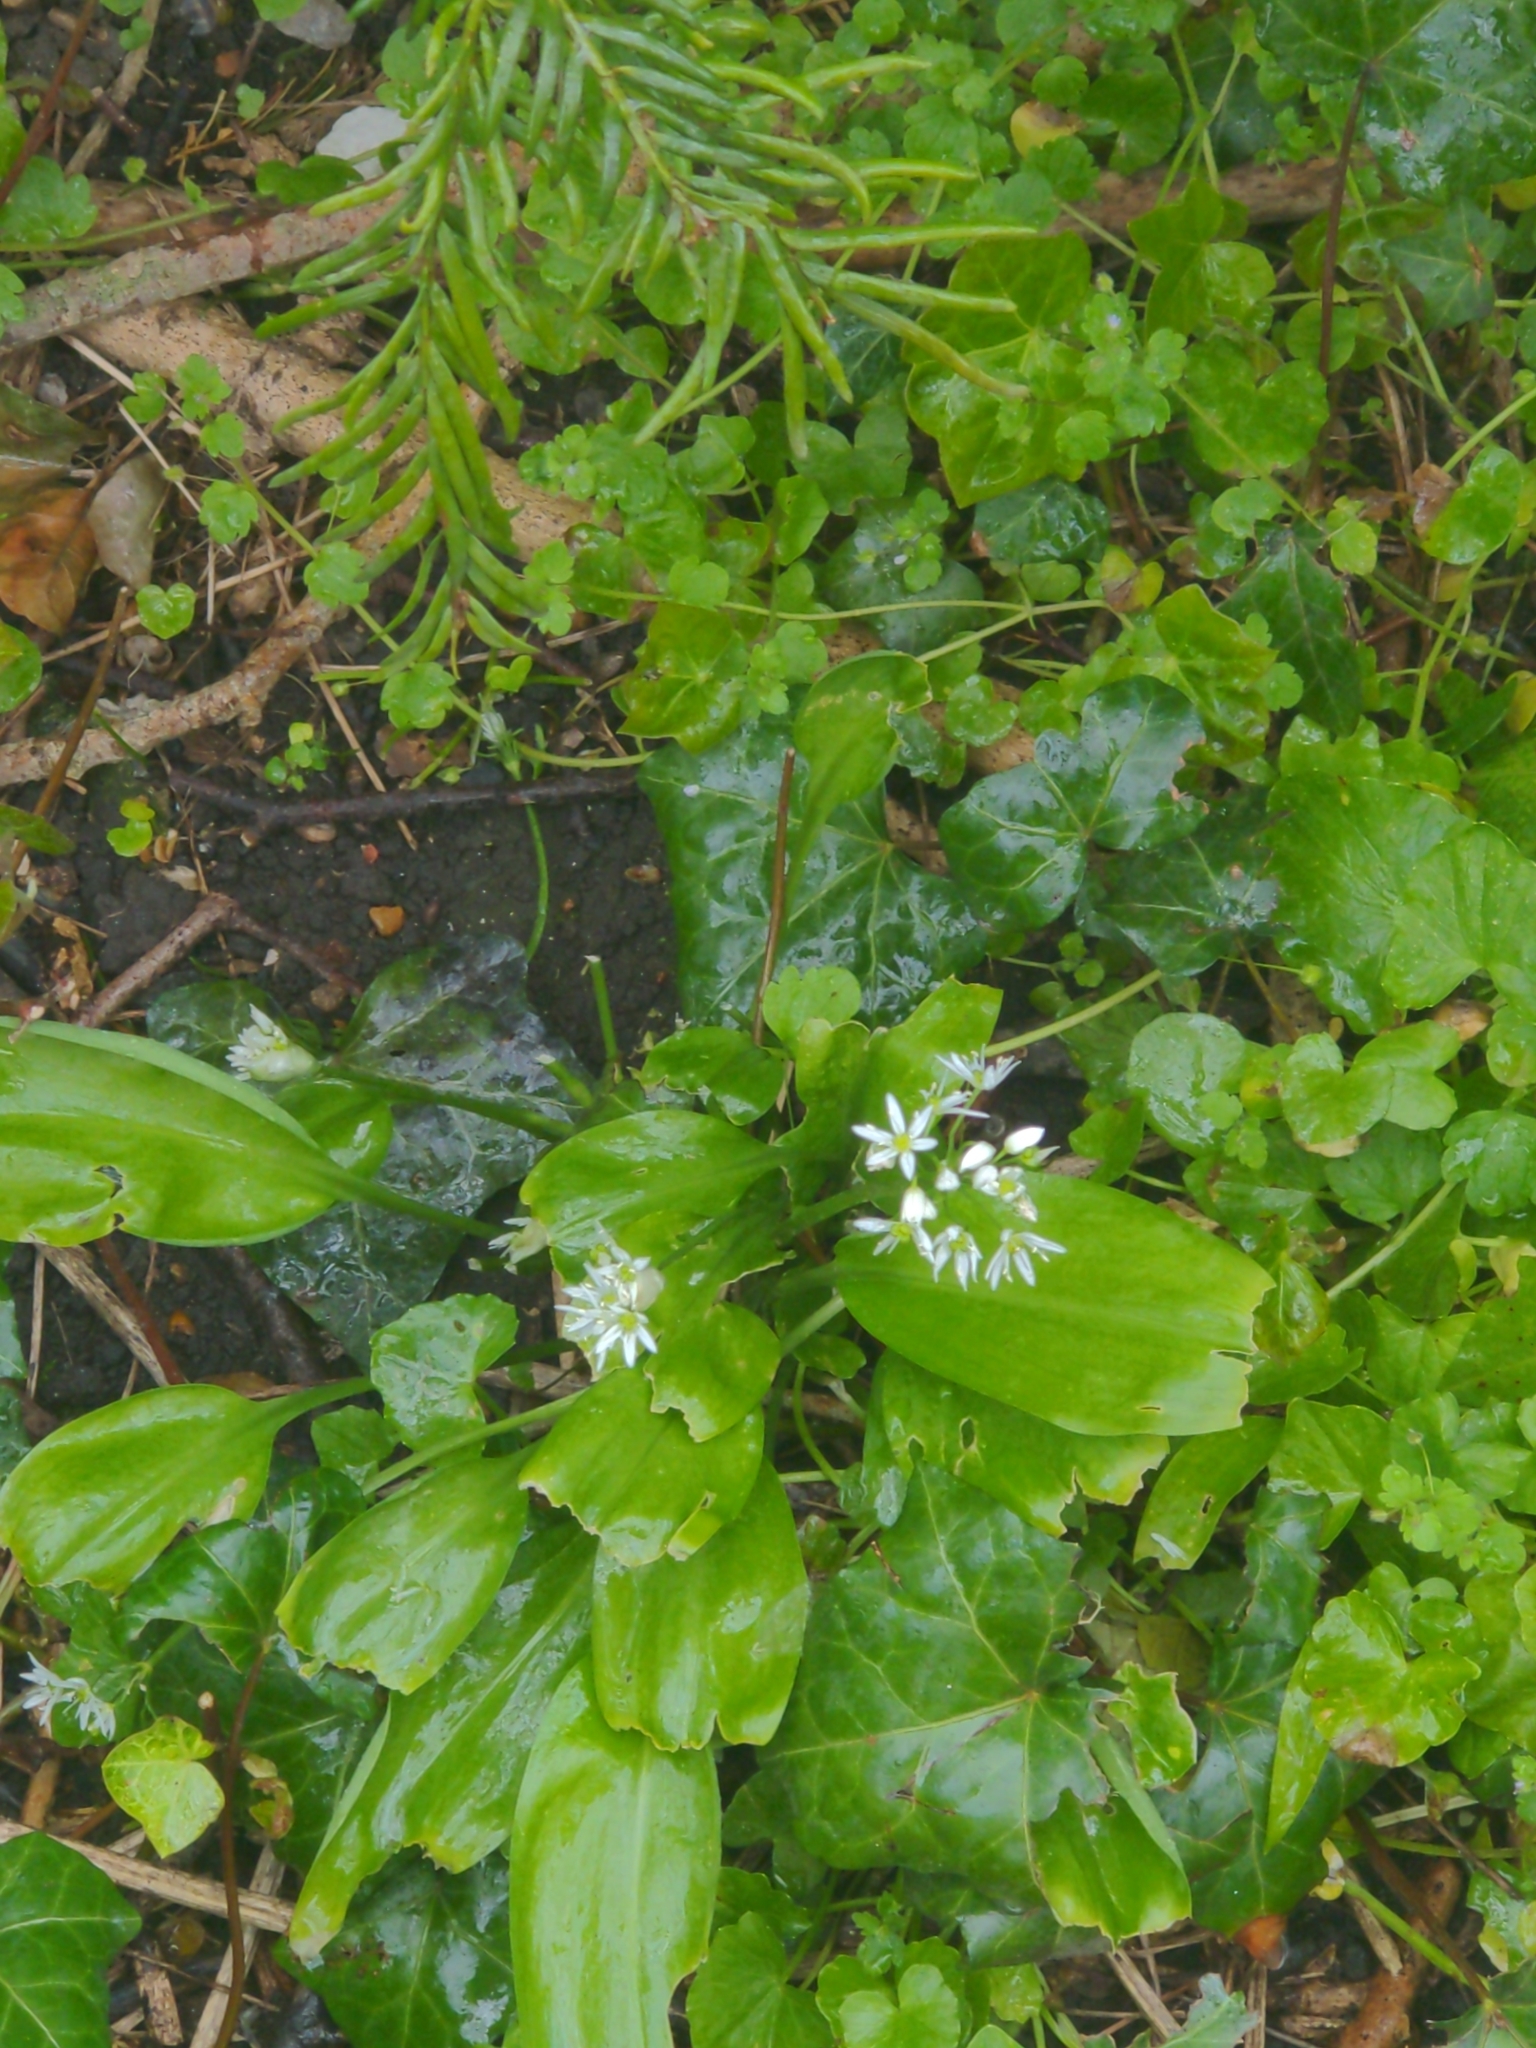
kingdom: Plantae
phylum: Tracheophyta
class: Liliopsida
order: Asparagales
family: Amaryllidaceae
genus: Allium
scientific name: Allium ursinum
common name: Ramsons
